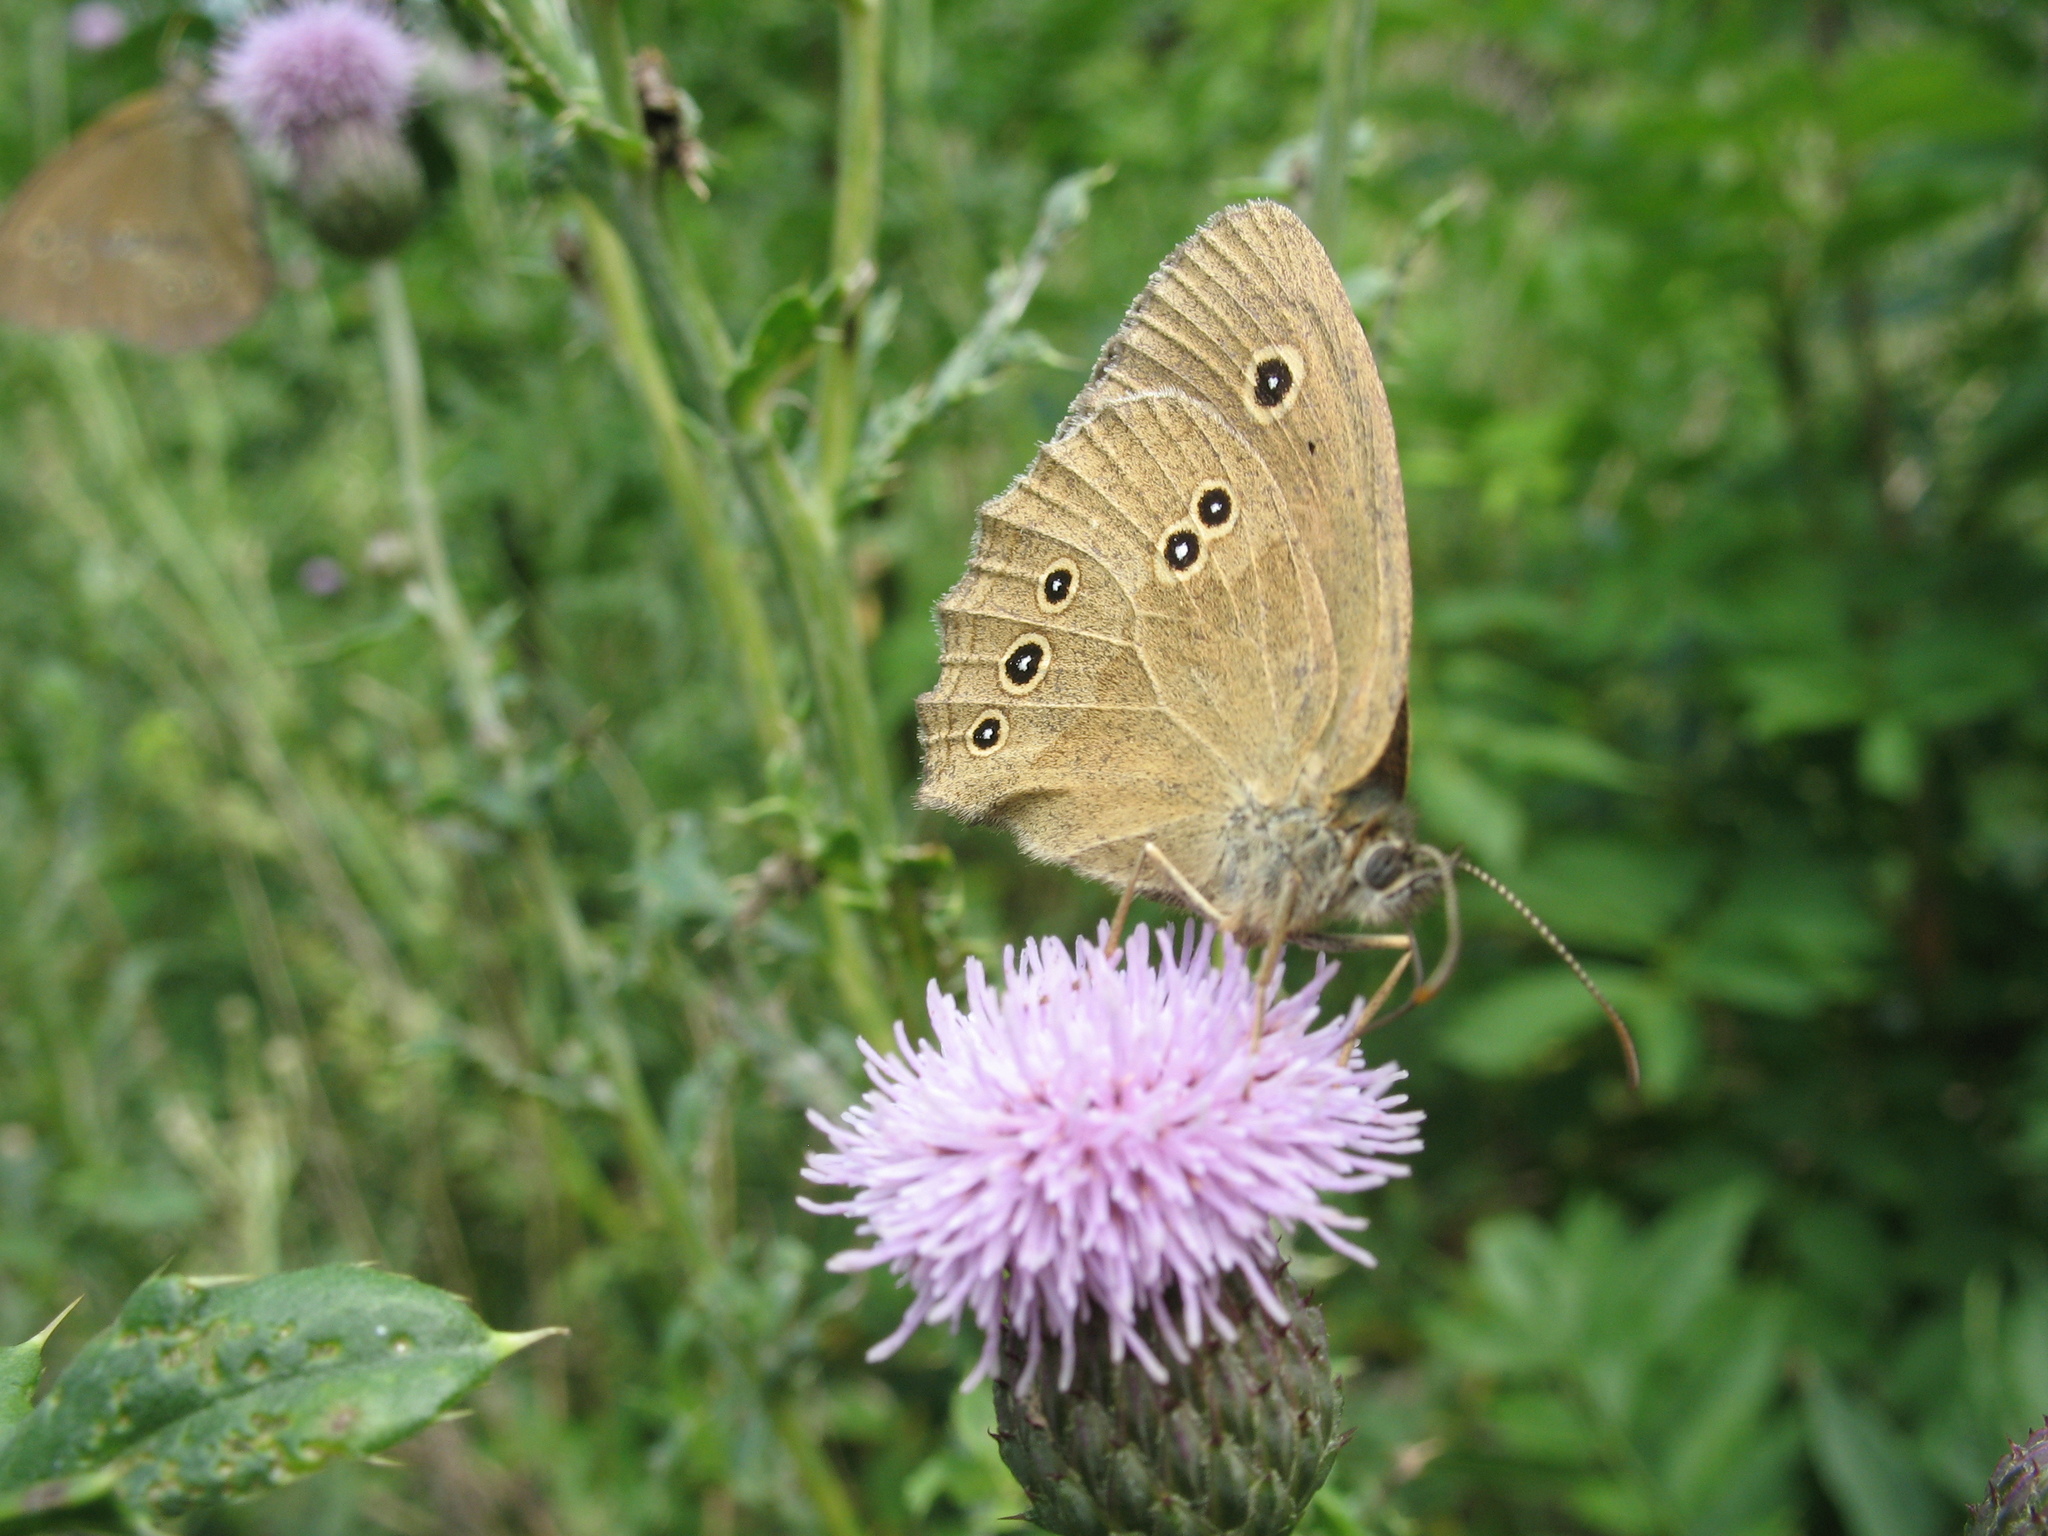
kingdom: Animalia
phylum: Arthropoda
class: Insecta
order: Lepidoptera
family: Nymphalidae
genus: Aphantopus
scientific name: Aphantopus hyperantus
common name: Ringlet
